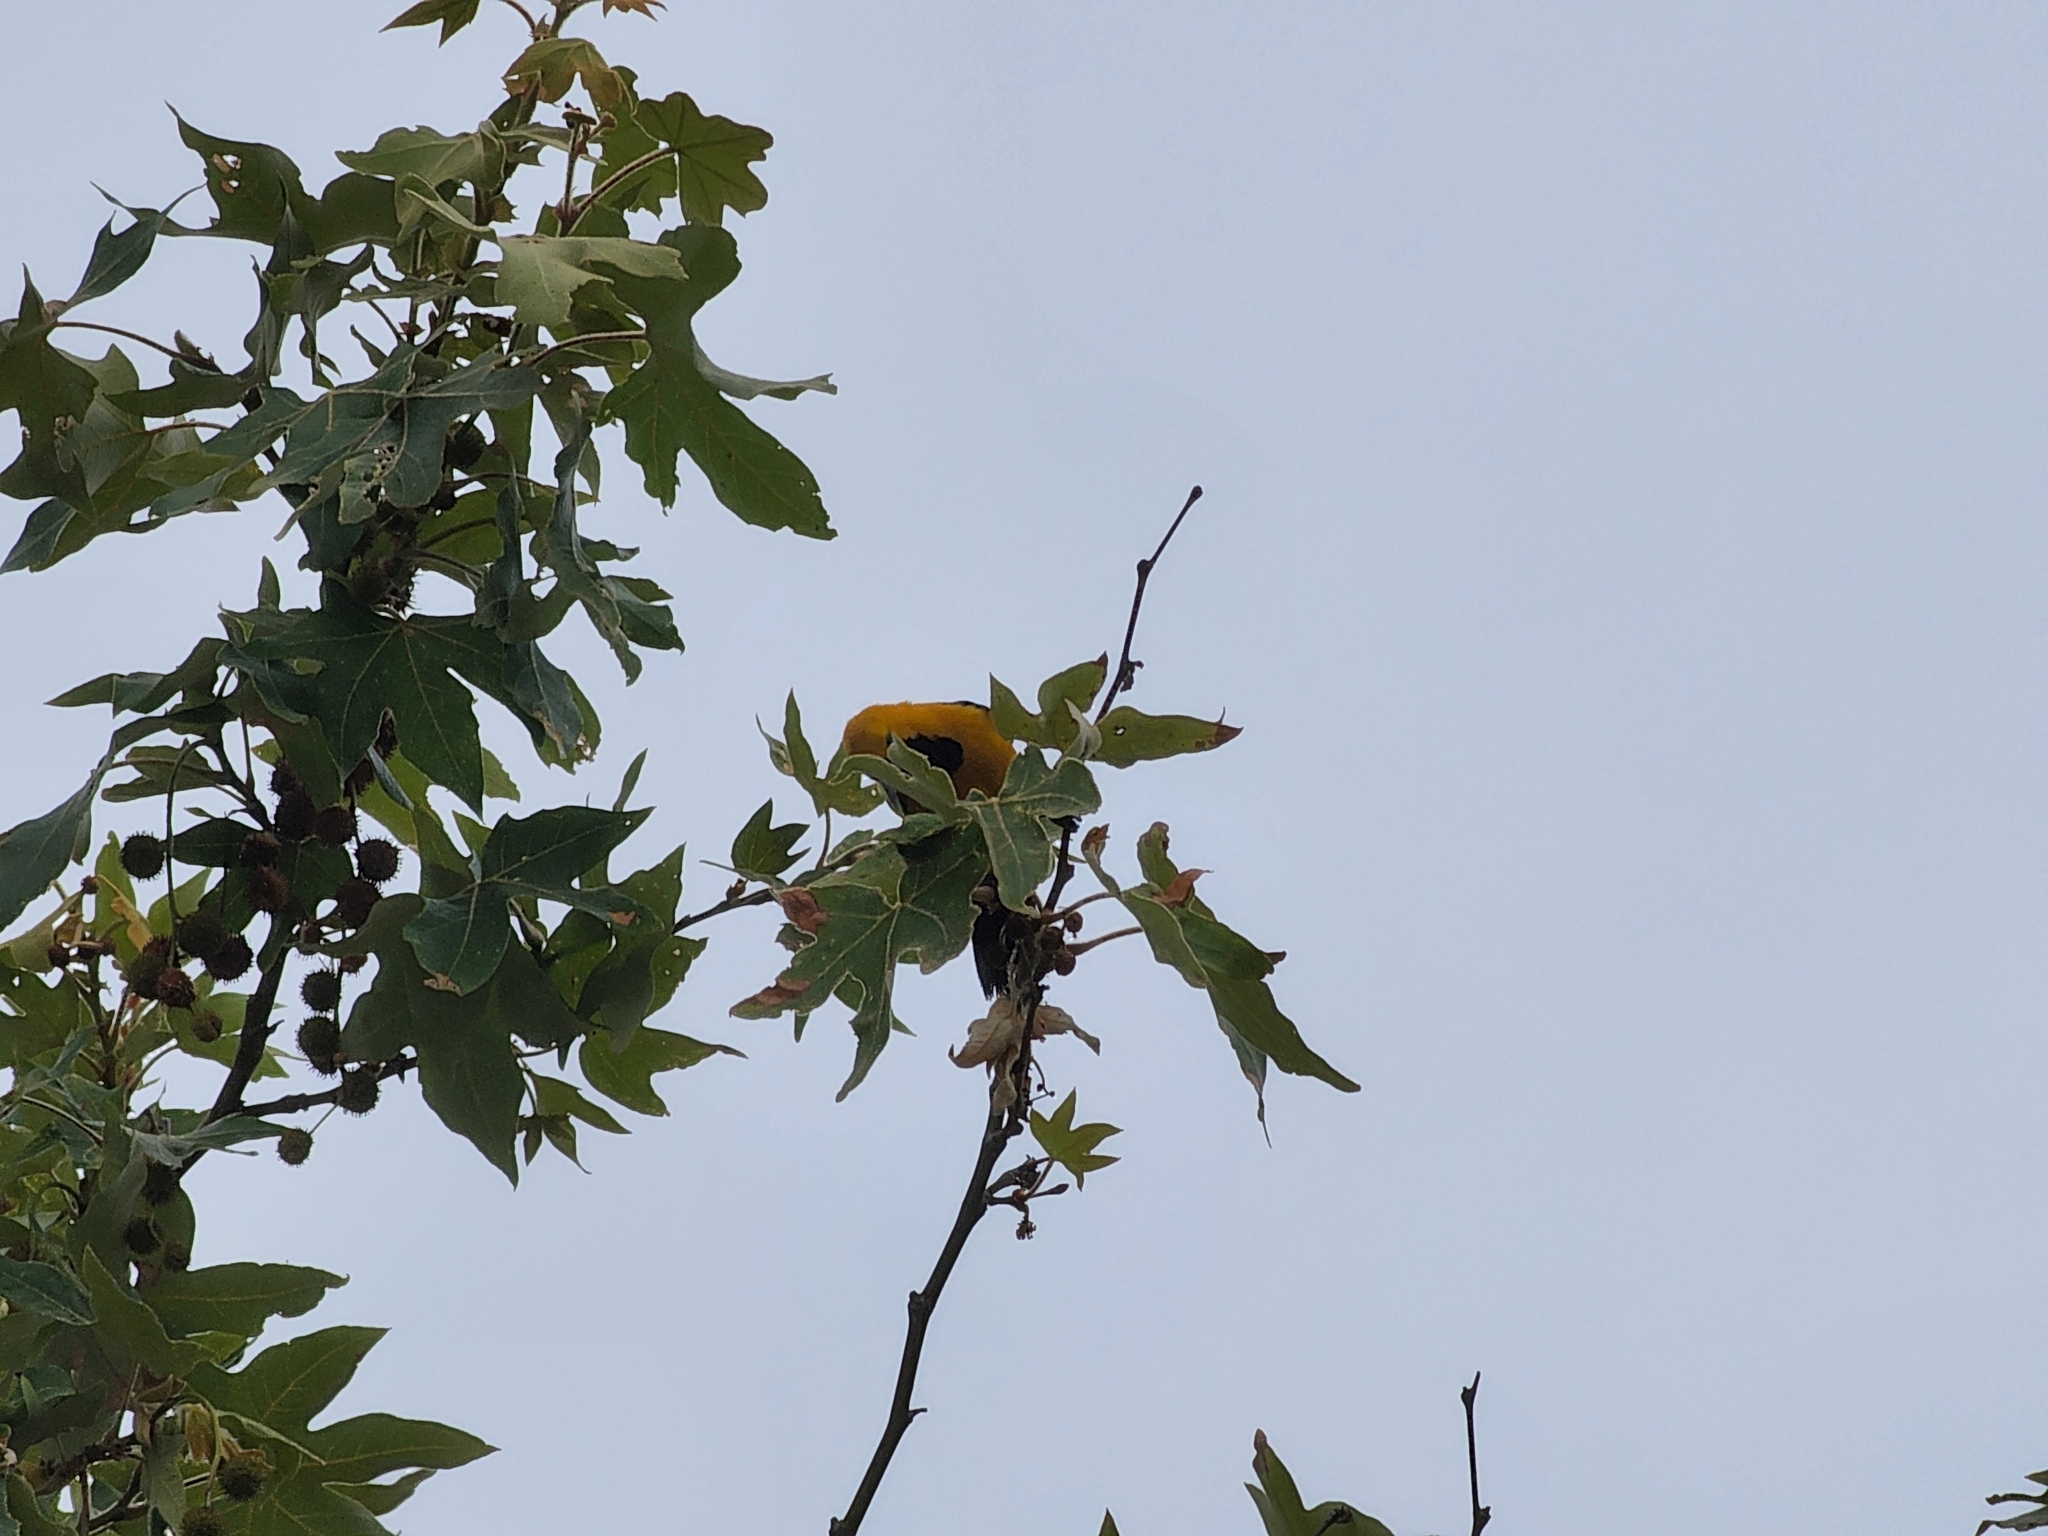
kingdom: Animalia
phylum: Chordata
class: Aves
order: Passeriformes
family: Icteridae
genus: Icterus
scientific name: Icterus cucullatus
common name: Hooded oriole
